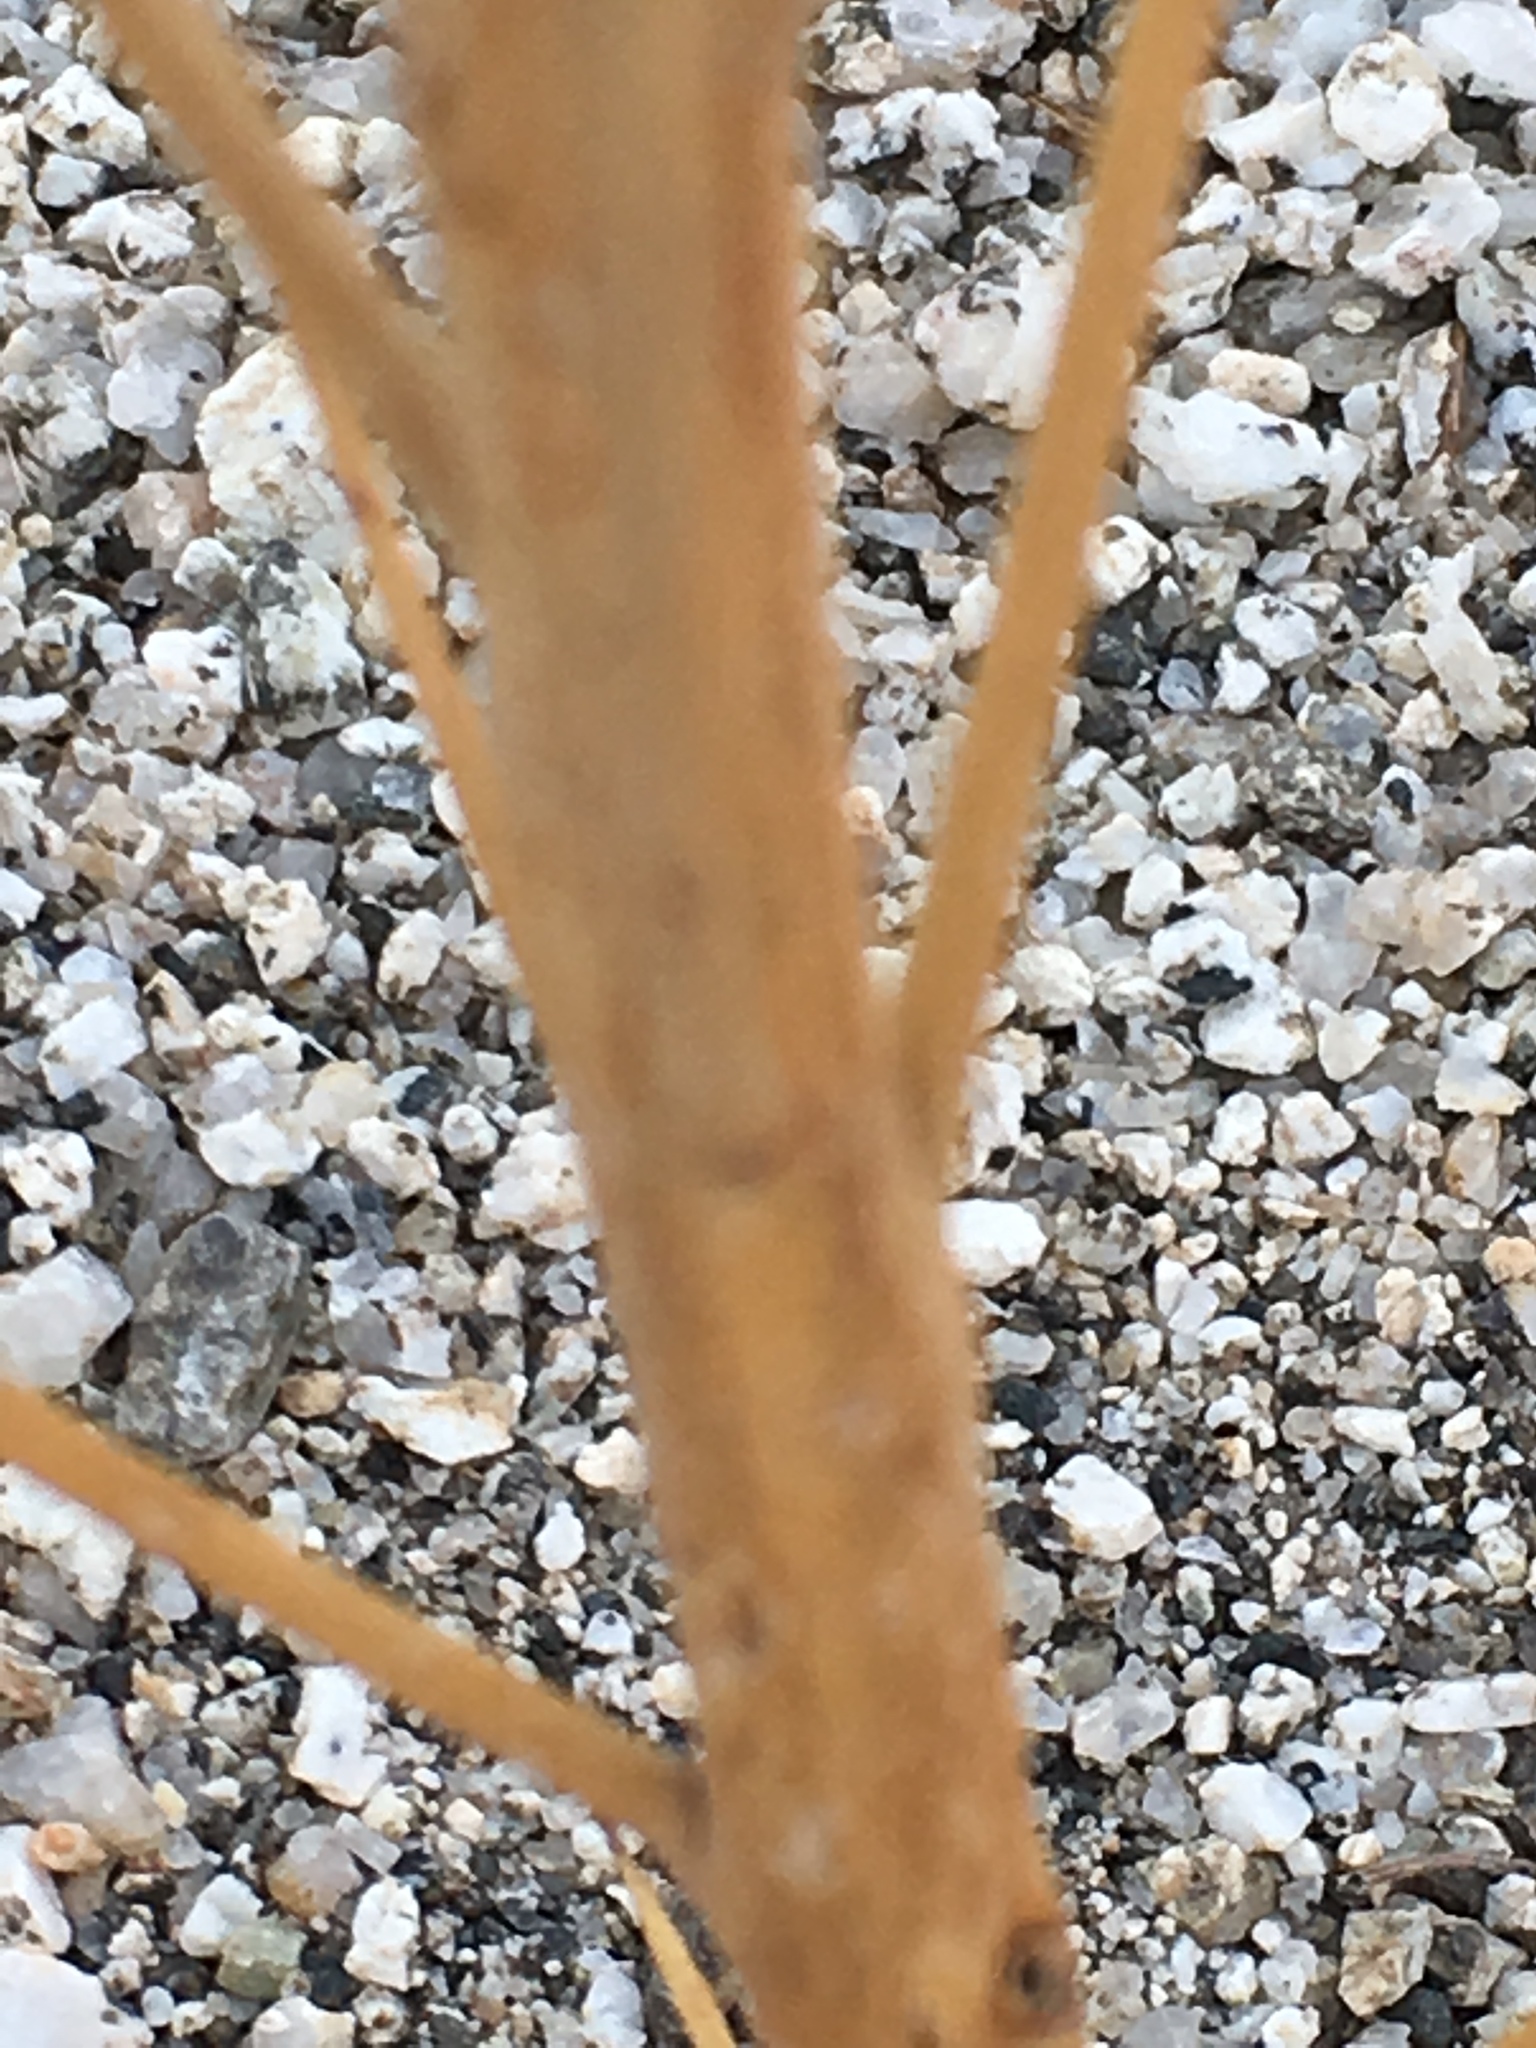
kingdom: Plantae
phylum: Tracheophyta
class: Magnoliopsida
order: Myrtales
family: Onagraceae
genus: Eulobus
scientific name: Eulobus californicus
